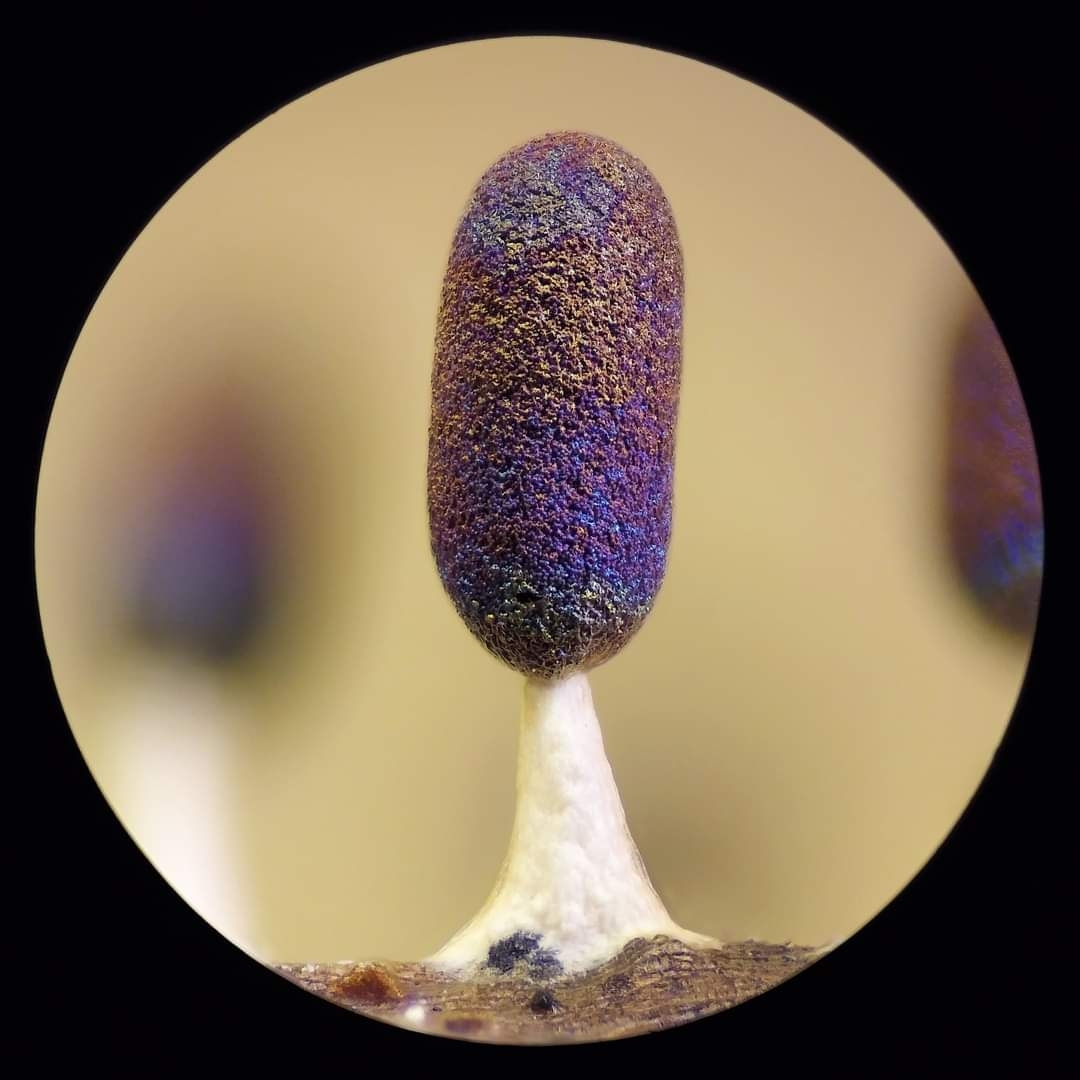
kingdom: Protozoa
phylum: Mycetozoa
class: Myxomycetes
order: Physarales
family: Didymiaceae
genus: Diachea
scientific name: Diachea leucopodia
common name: White-footed slime
